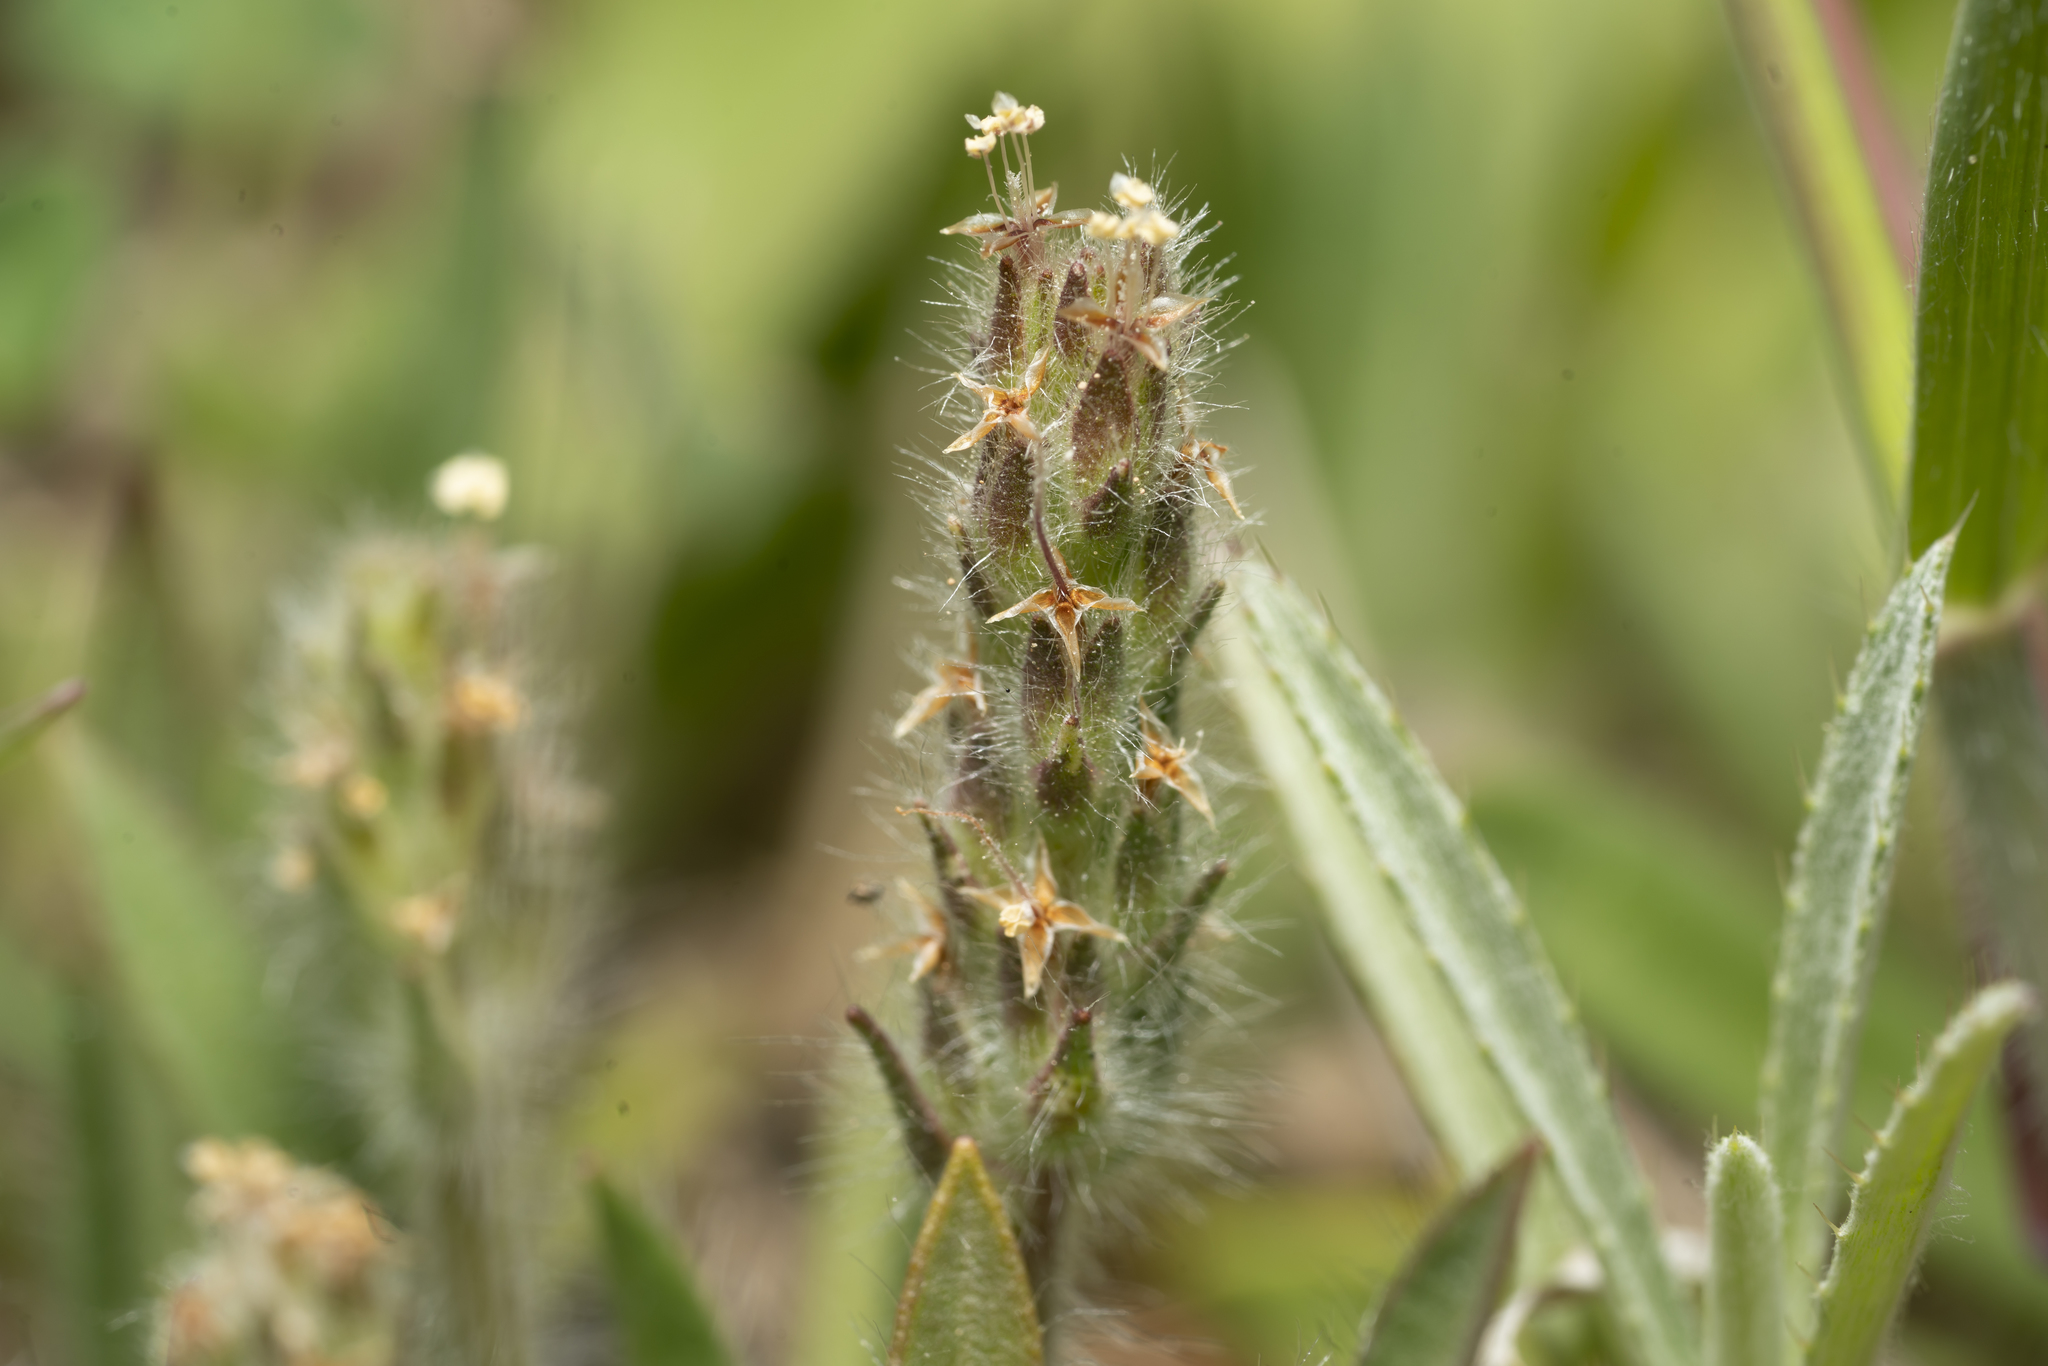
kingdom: Plantae
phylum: Tracheophyta
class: Magnoliopsida
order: Lamiales
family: Plantaginaceae
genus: Plantago
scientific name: Plantago bellardii
